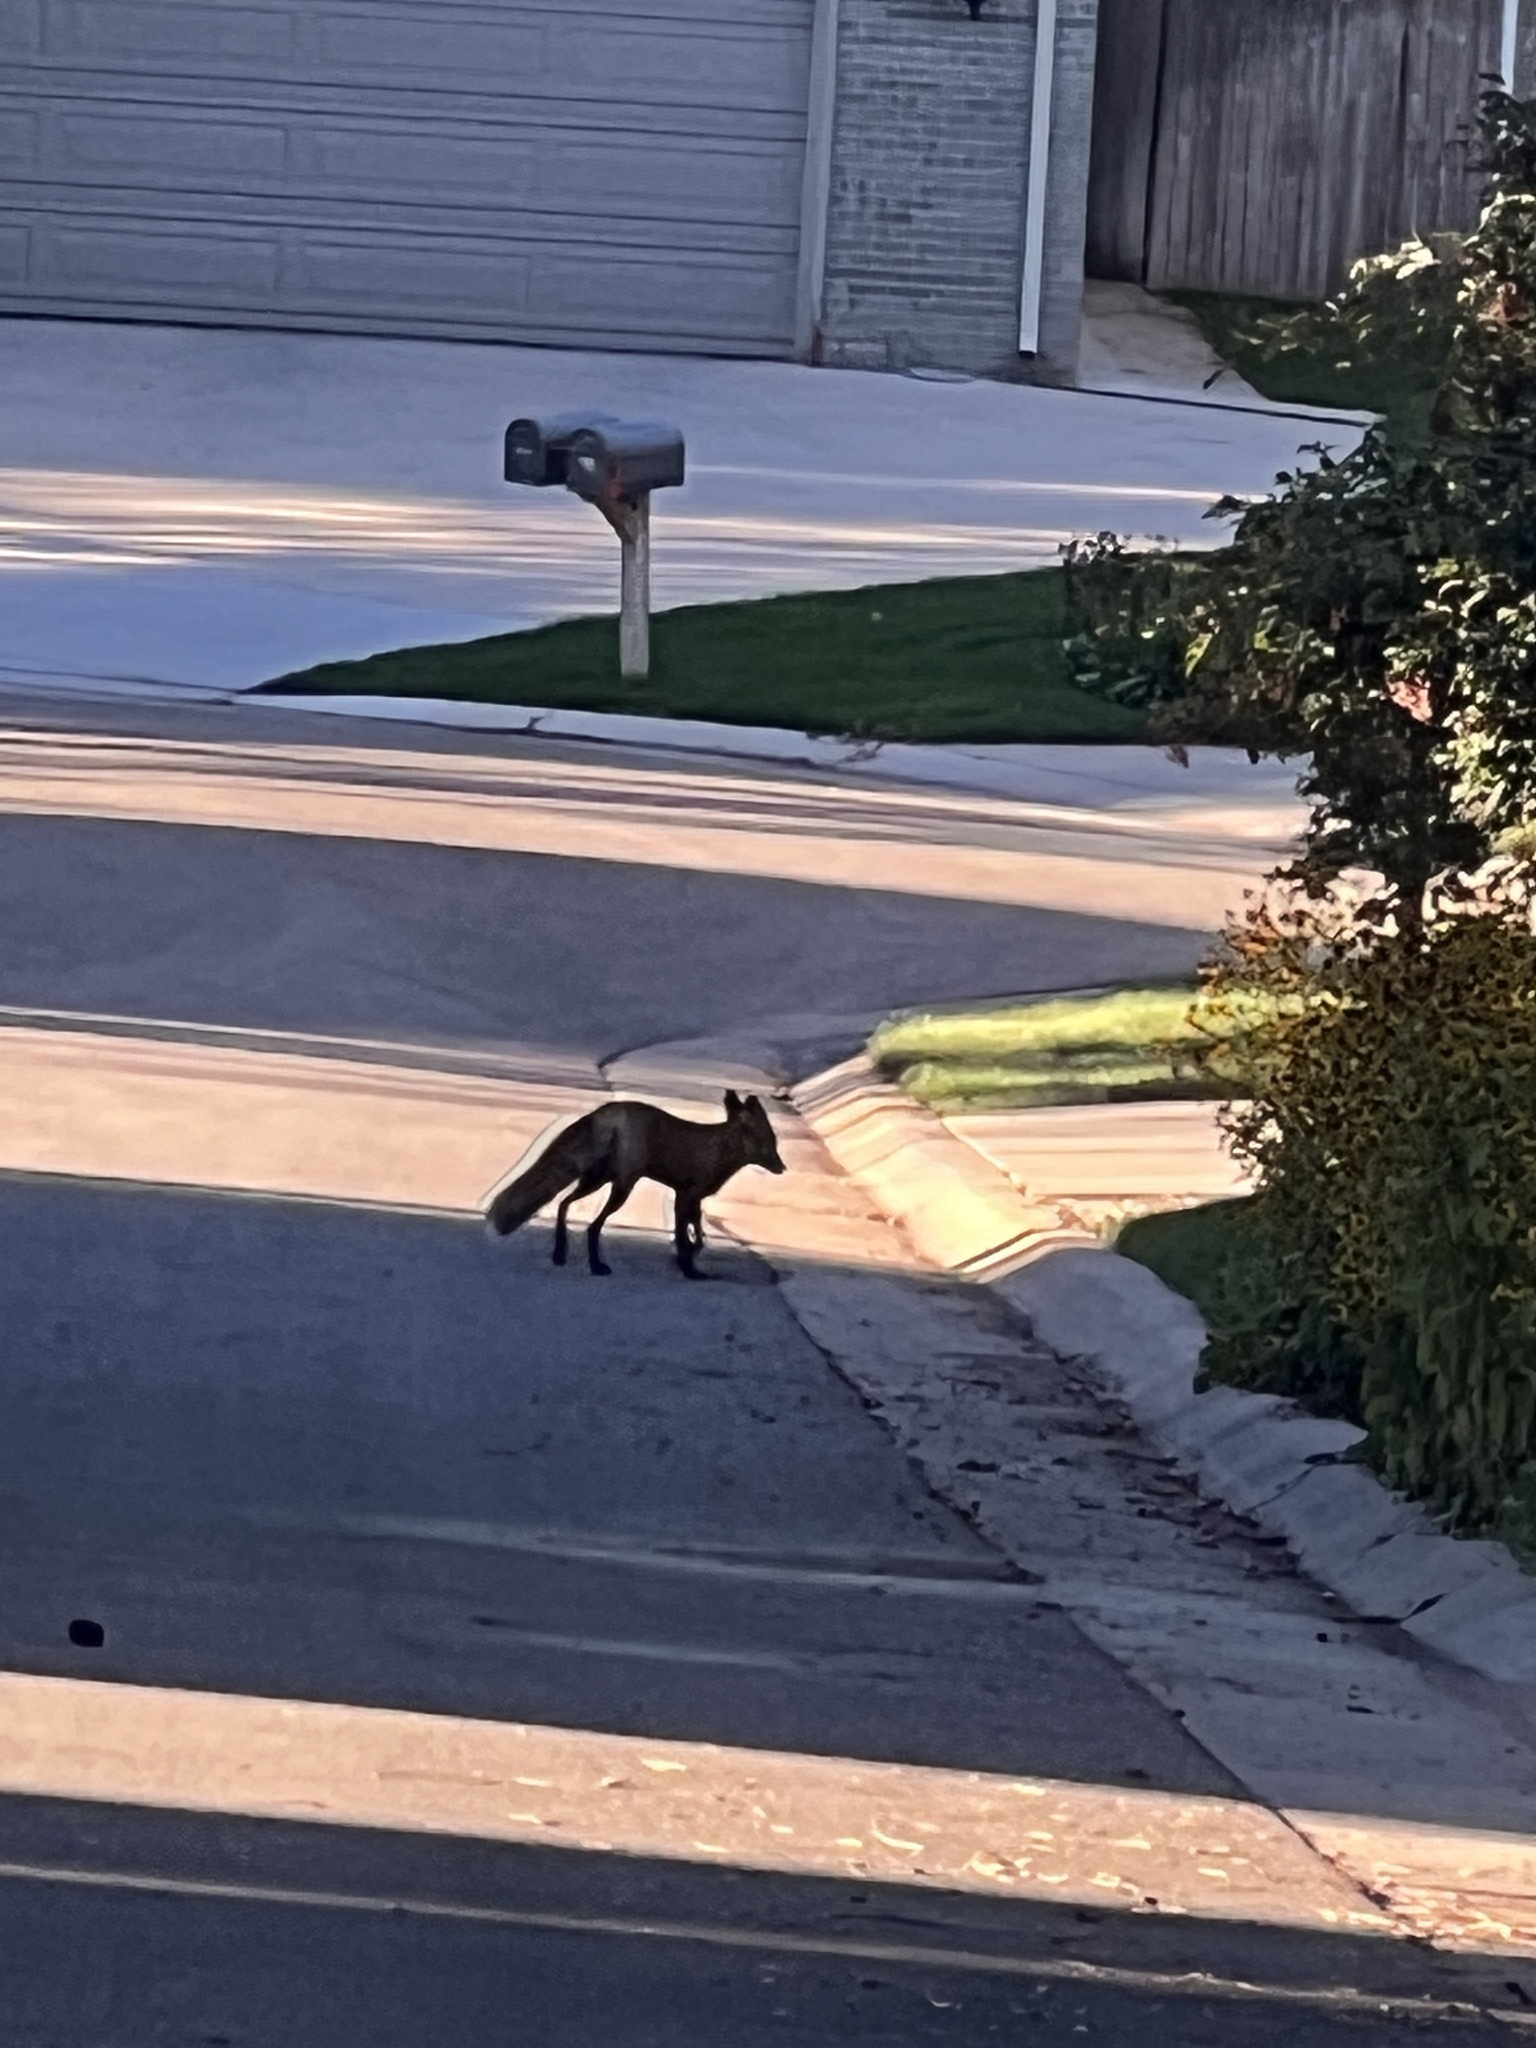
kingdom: Animalia
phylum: Chordata
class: Mammalia
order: Carnivora
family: Canidae
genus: Vulpes
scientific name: Vulpes vulpes
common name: Red fox
